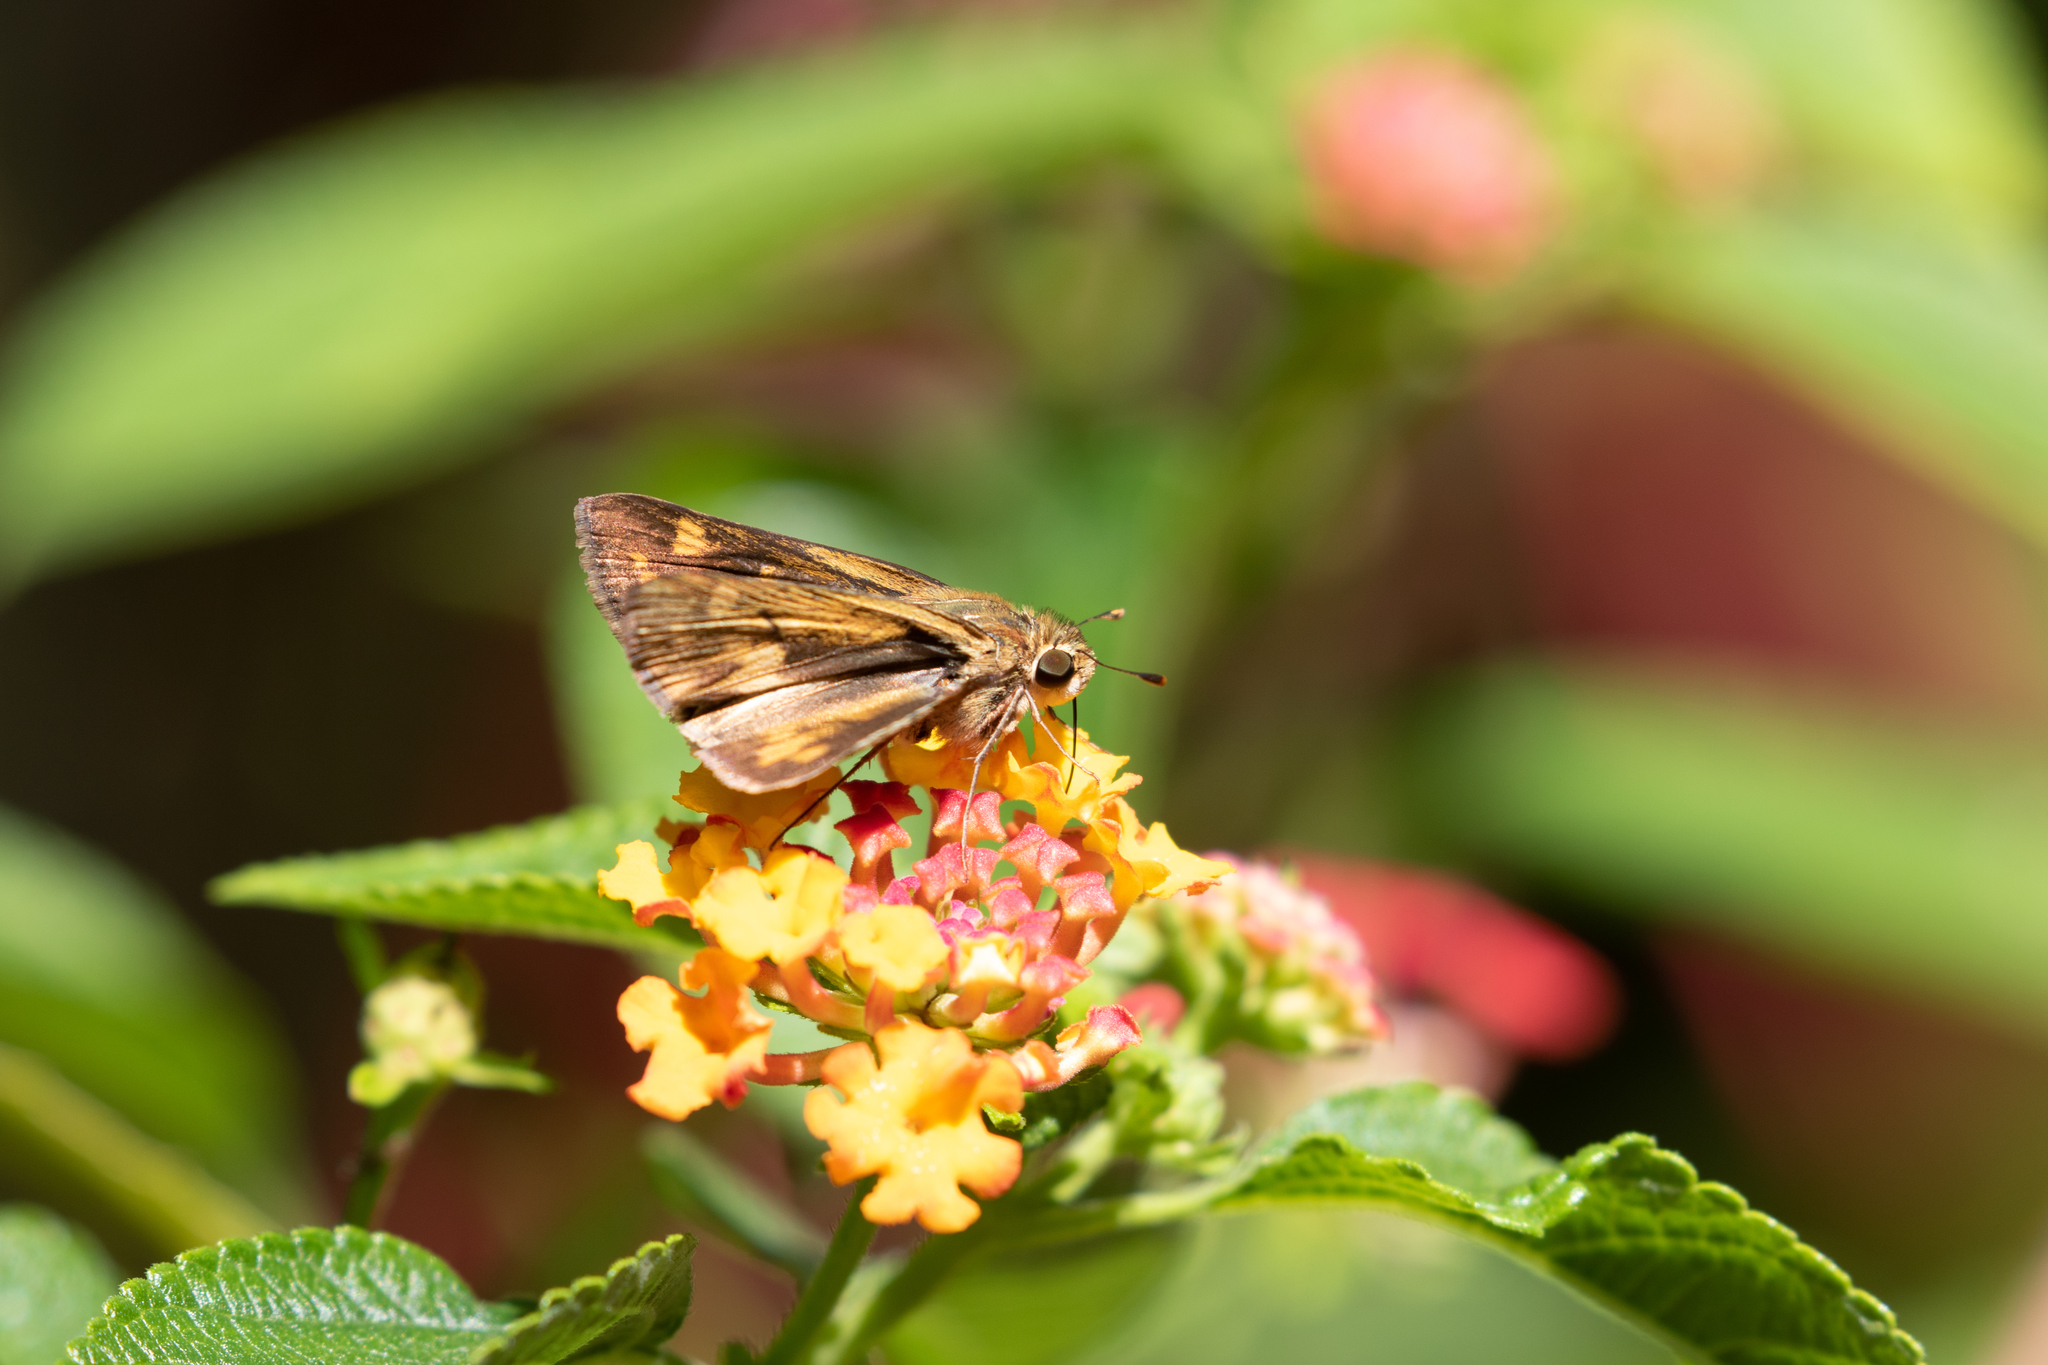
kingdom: Animalia
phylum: Arthropoda
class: Insecta
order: Lepidoptera
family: Hesperiidae
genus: Hylephila
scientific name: Hylephila phyleus
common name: Fiery skipper
